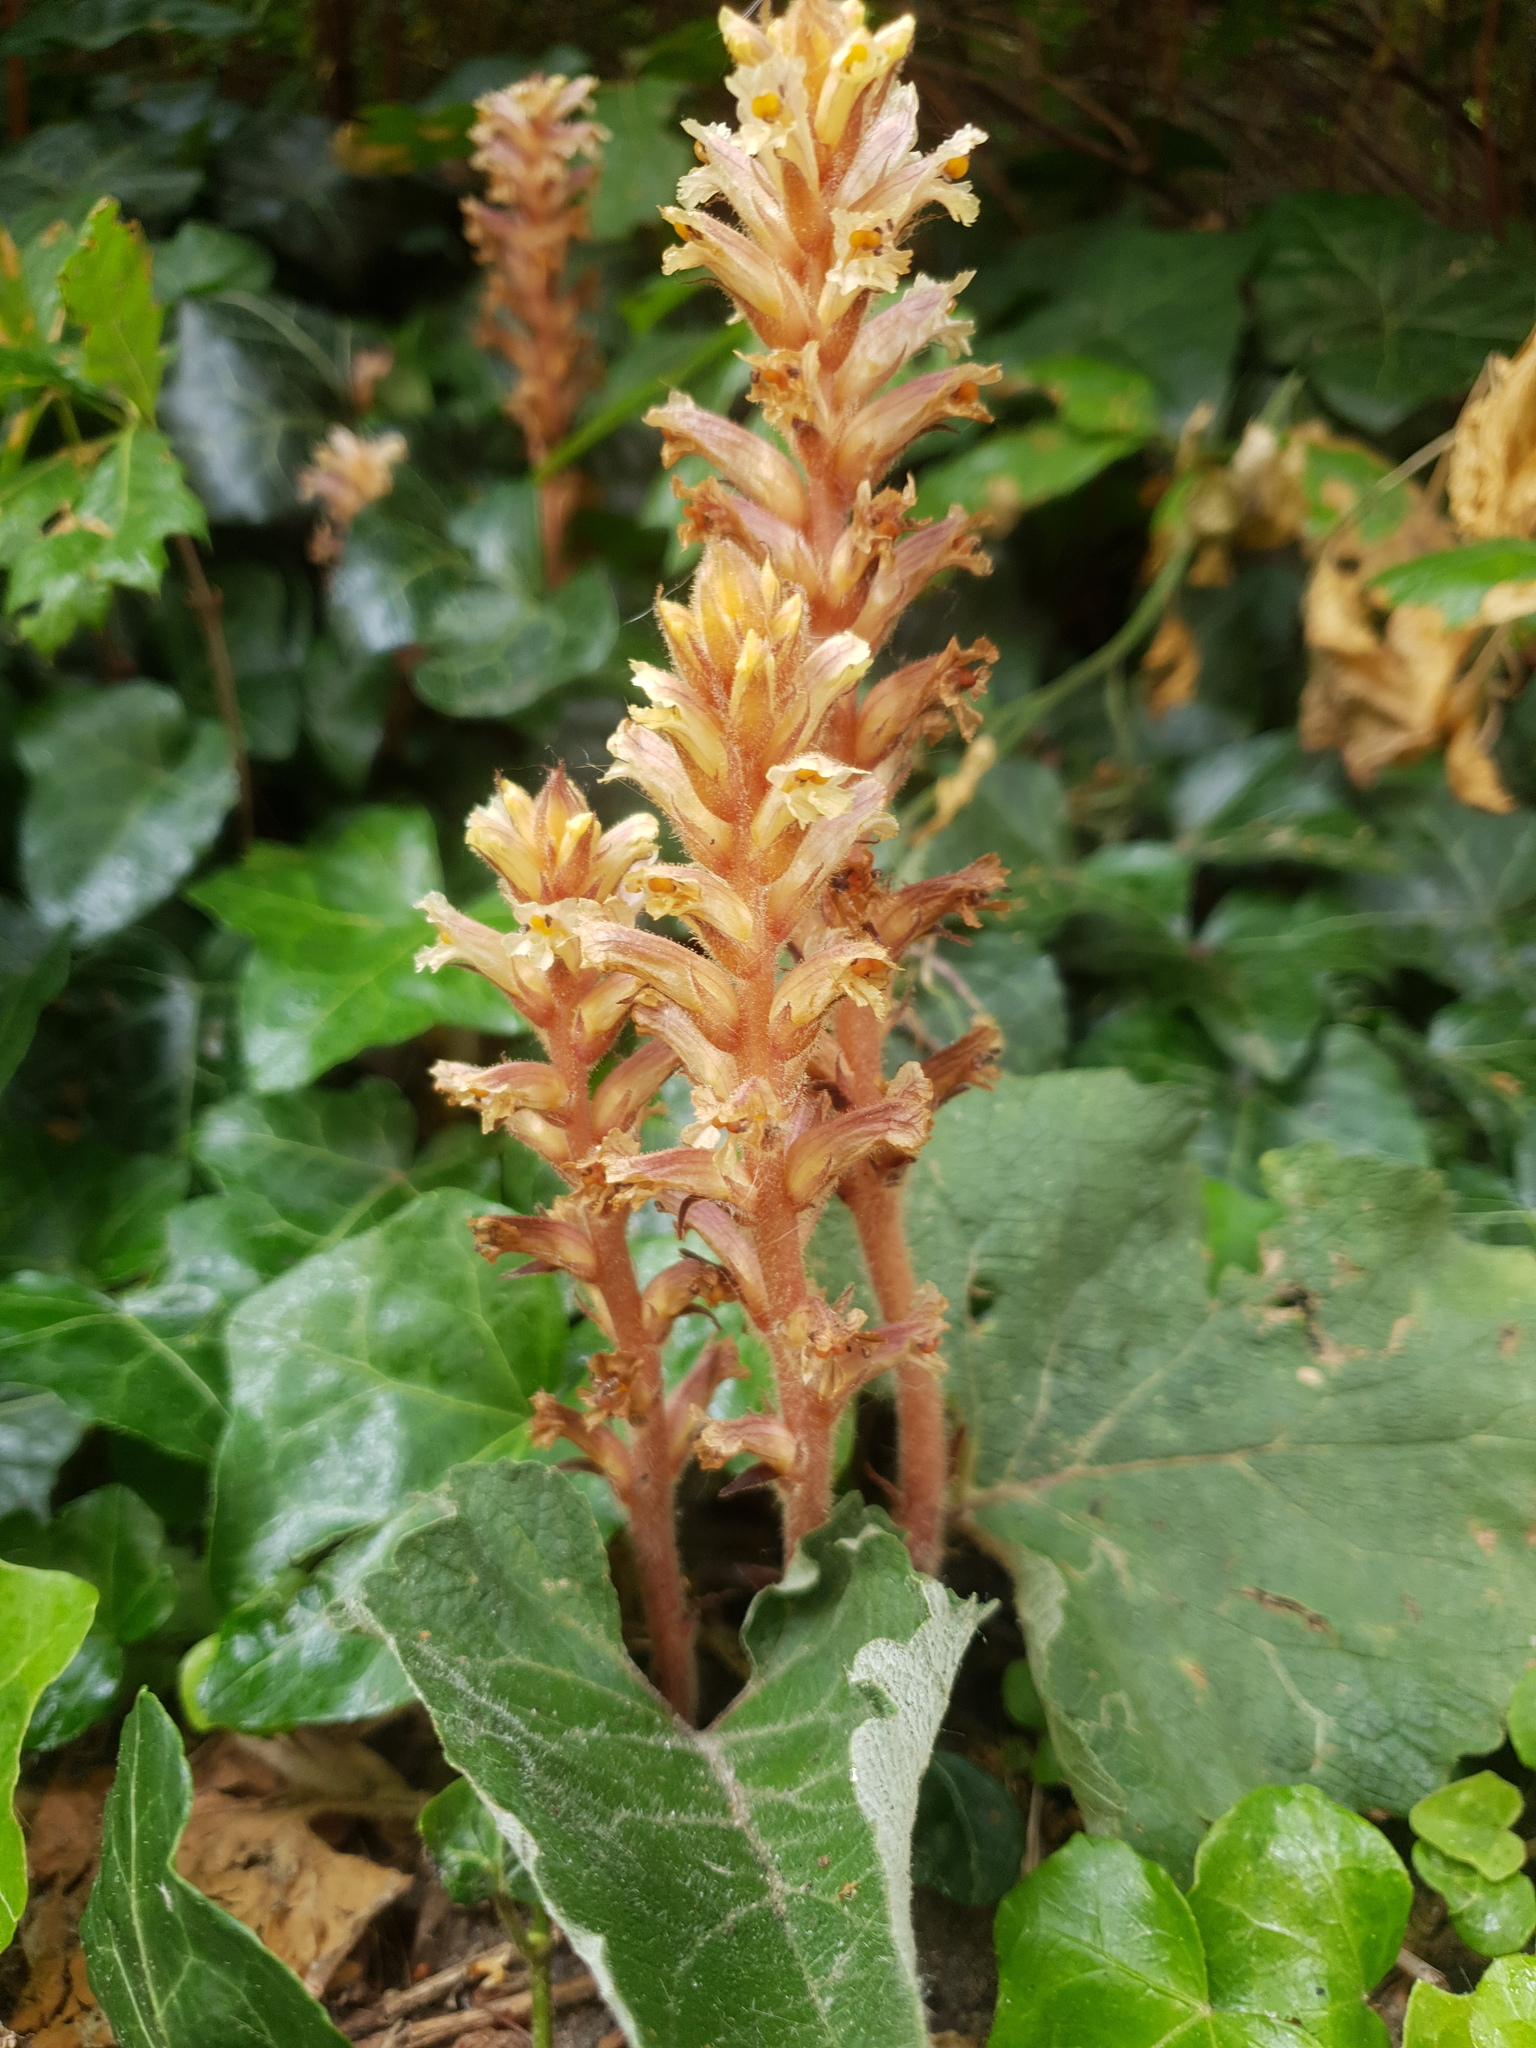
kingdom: Plantae
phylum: Tracheophyta
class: Magnoliopsida
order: Lamiales
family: Orobanchaceae
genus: Orobanche
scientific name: Orobanche hederae
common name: Ivy broomrape
